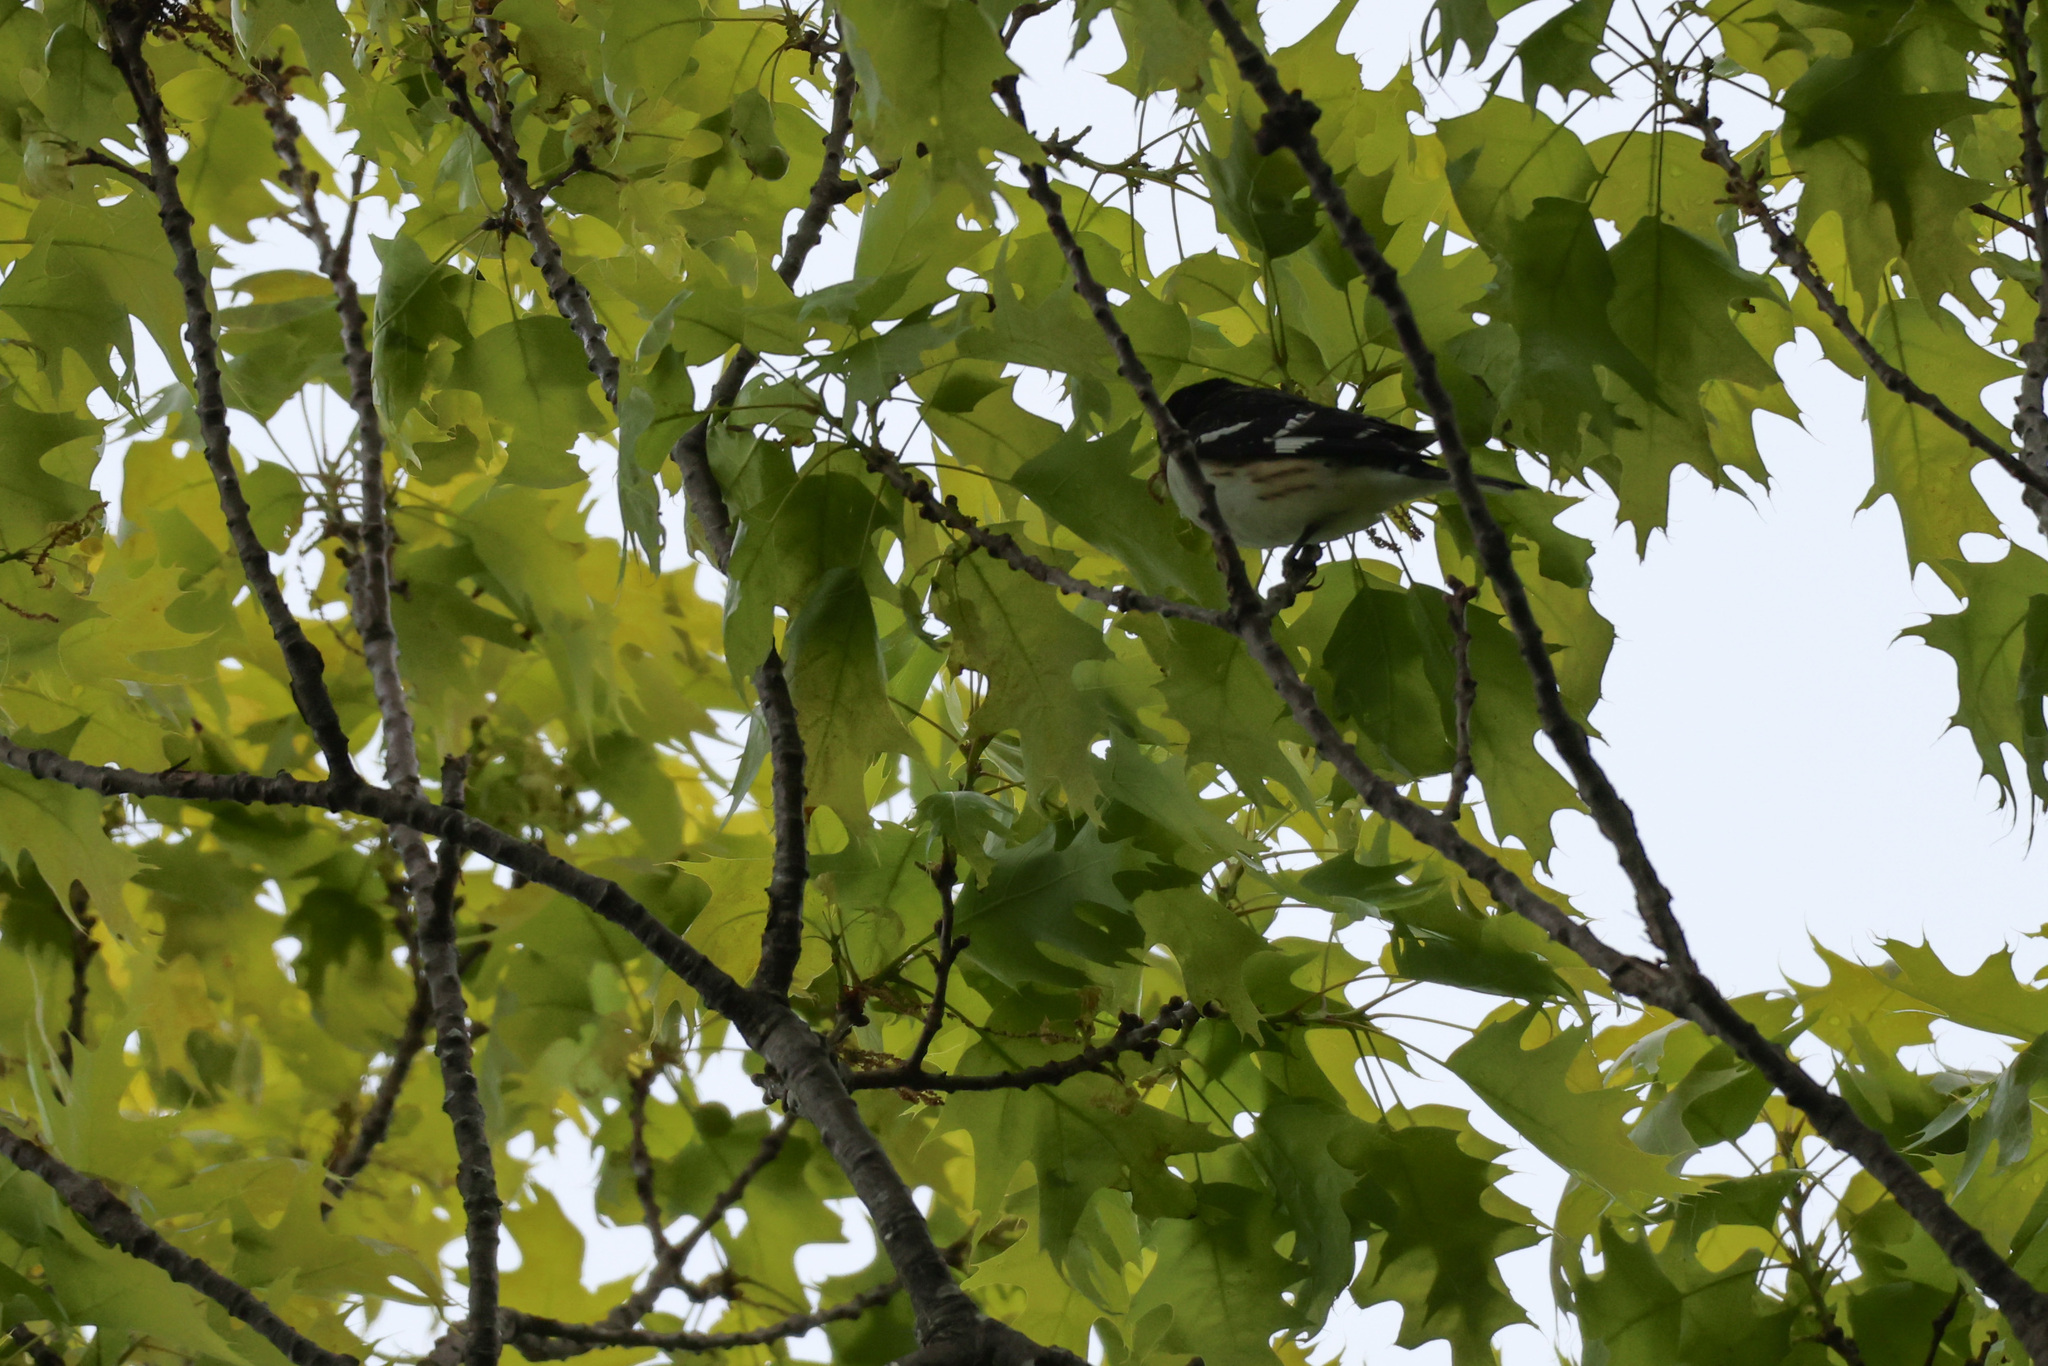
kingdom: Animalia
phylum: Chordata
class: Aves
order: Passeriformes
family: Cardinalidae
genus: Pheucticus
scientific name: Pheucticus ludovicianus
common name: Rose-breasted grosbeak
